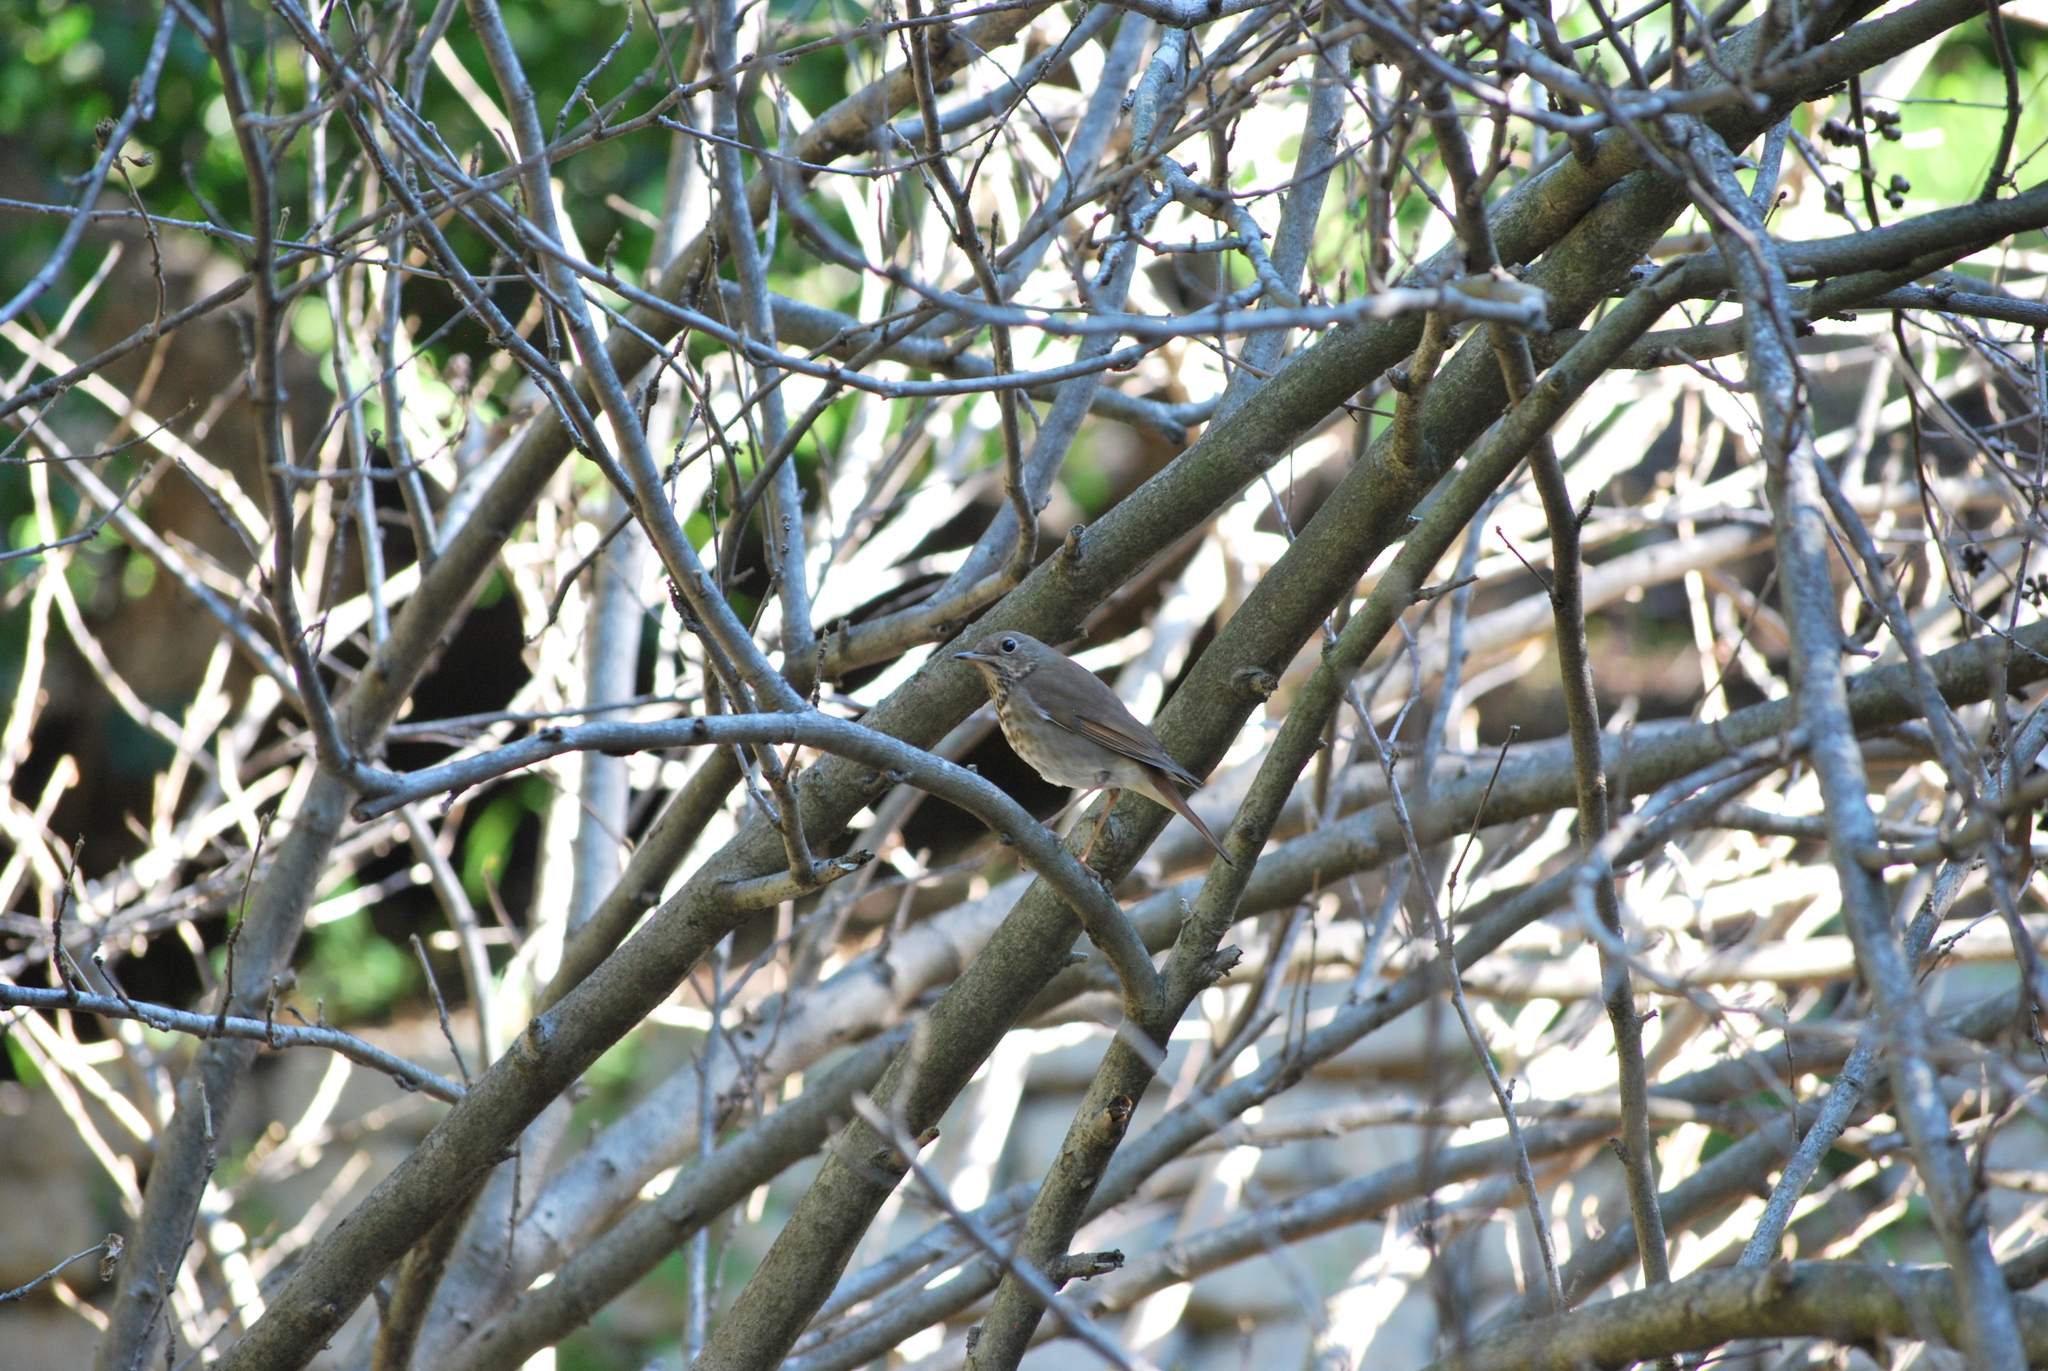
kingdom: Animalia
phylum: Chordata
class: Aves
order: Passeriformes
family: Turdidae
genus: Catharus
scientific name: Catharus guttatus
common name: Hermit thrush
